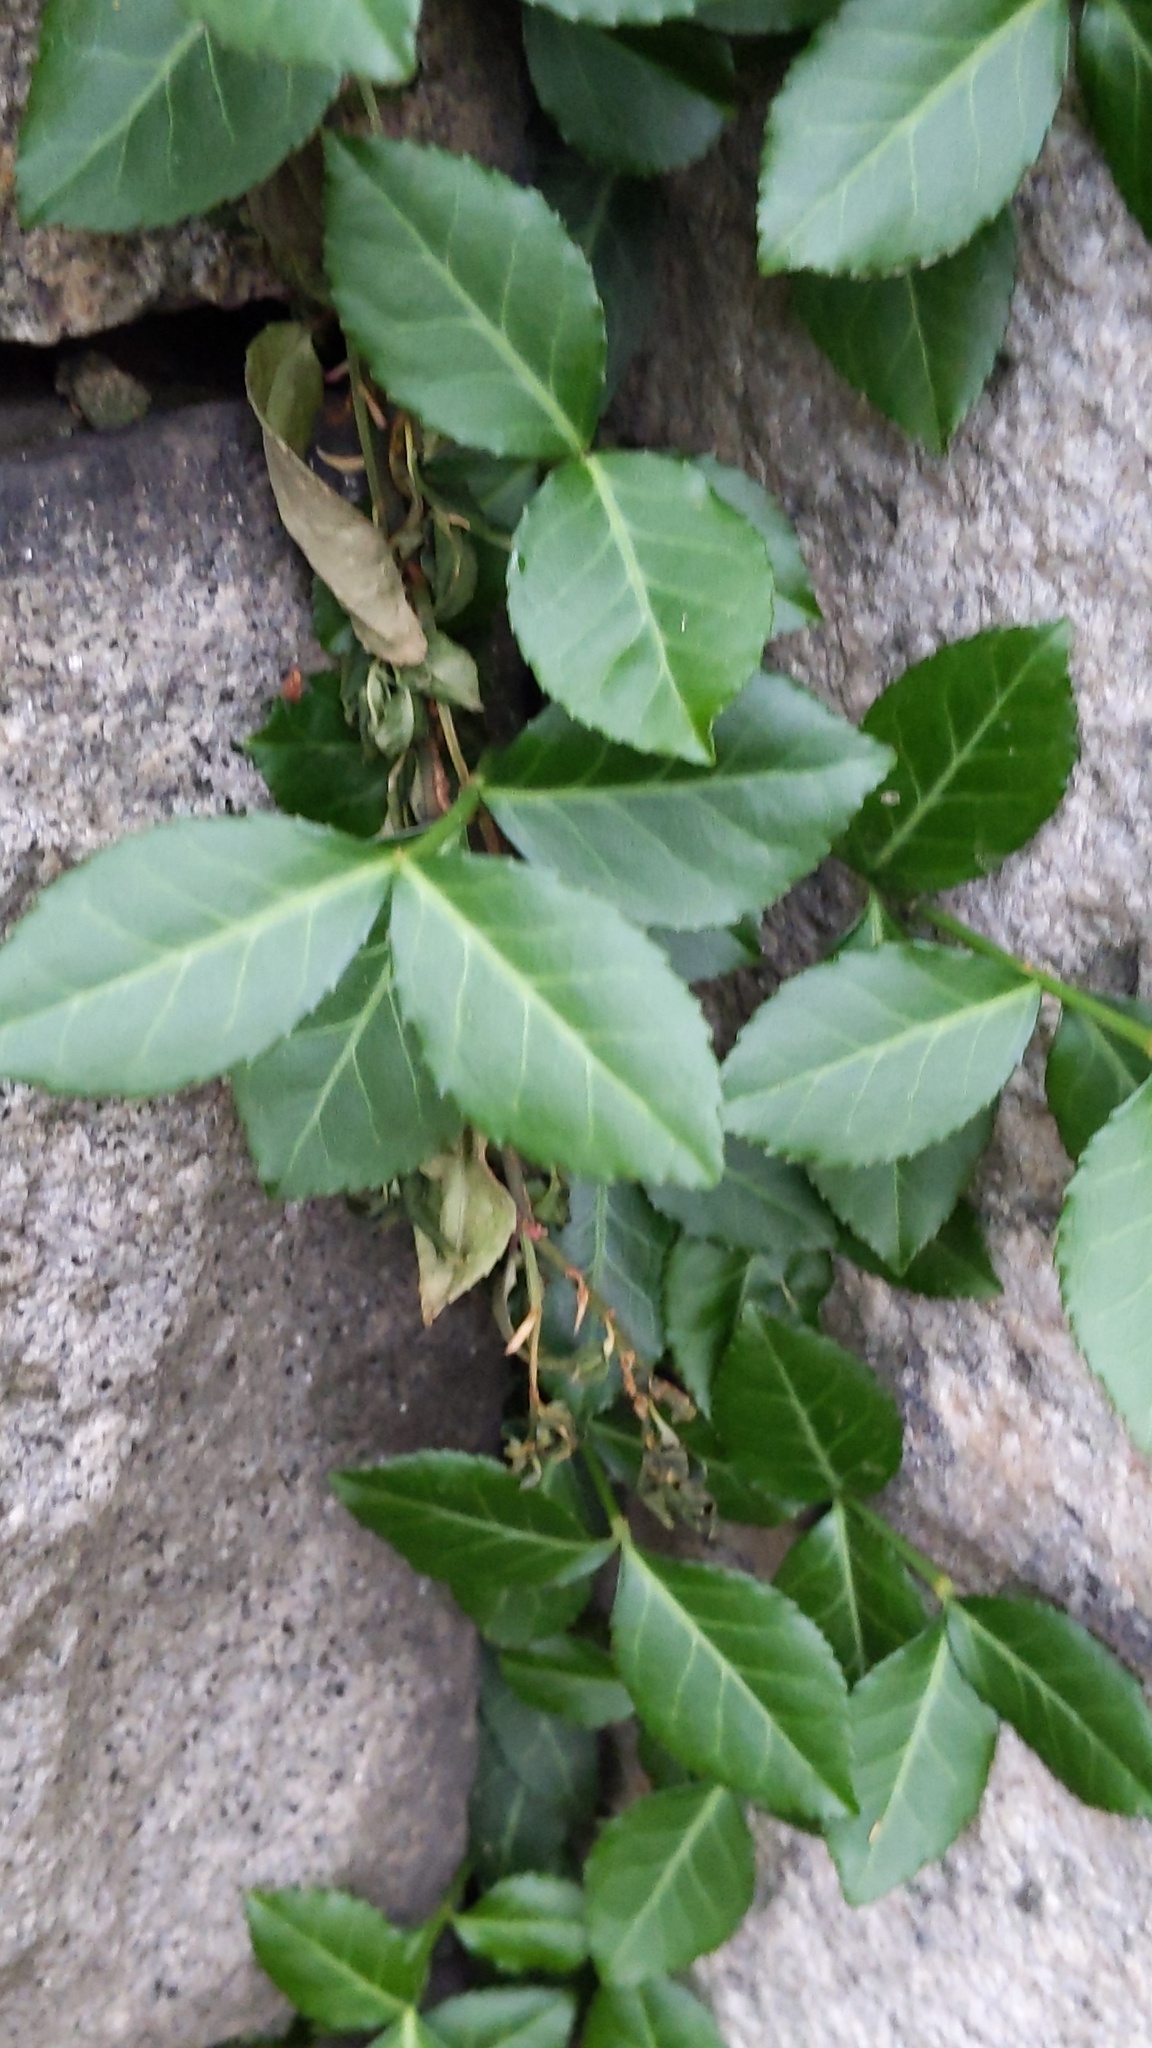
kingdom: Plantae
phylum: Tracheophyta
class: Magnoliopsida
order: Celastrales
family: Celastraceae
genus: Euonymus
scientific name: Euonymus fortunei
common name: Climbing euonymus
